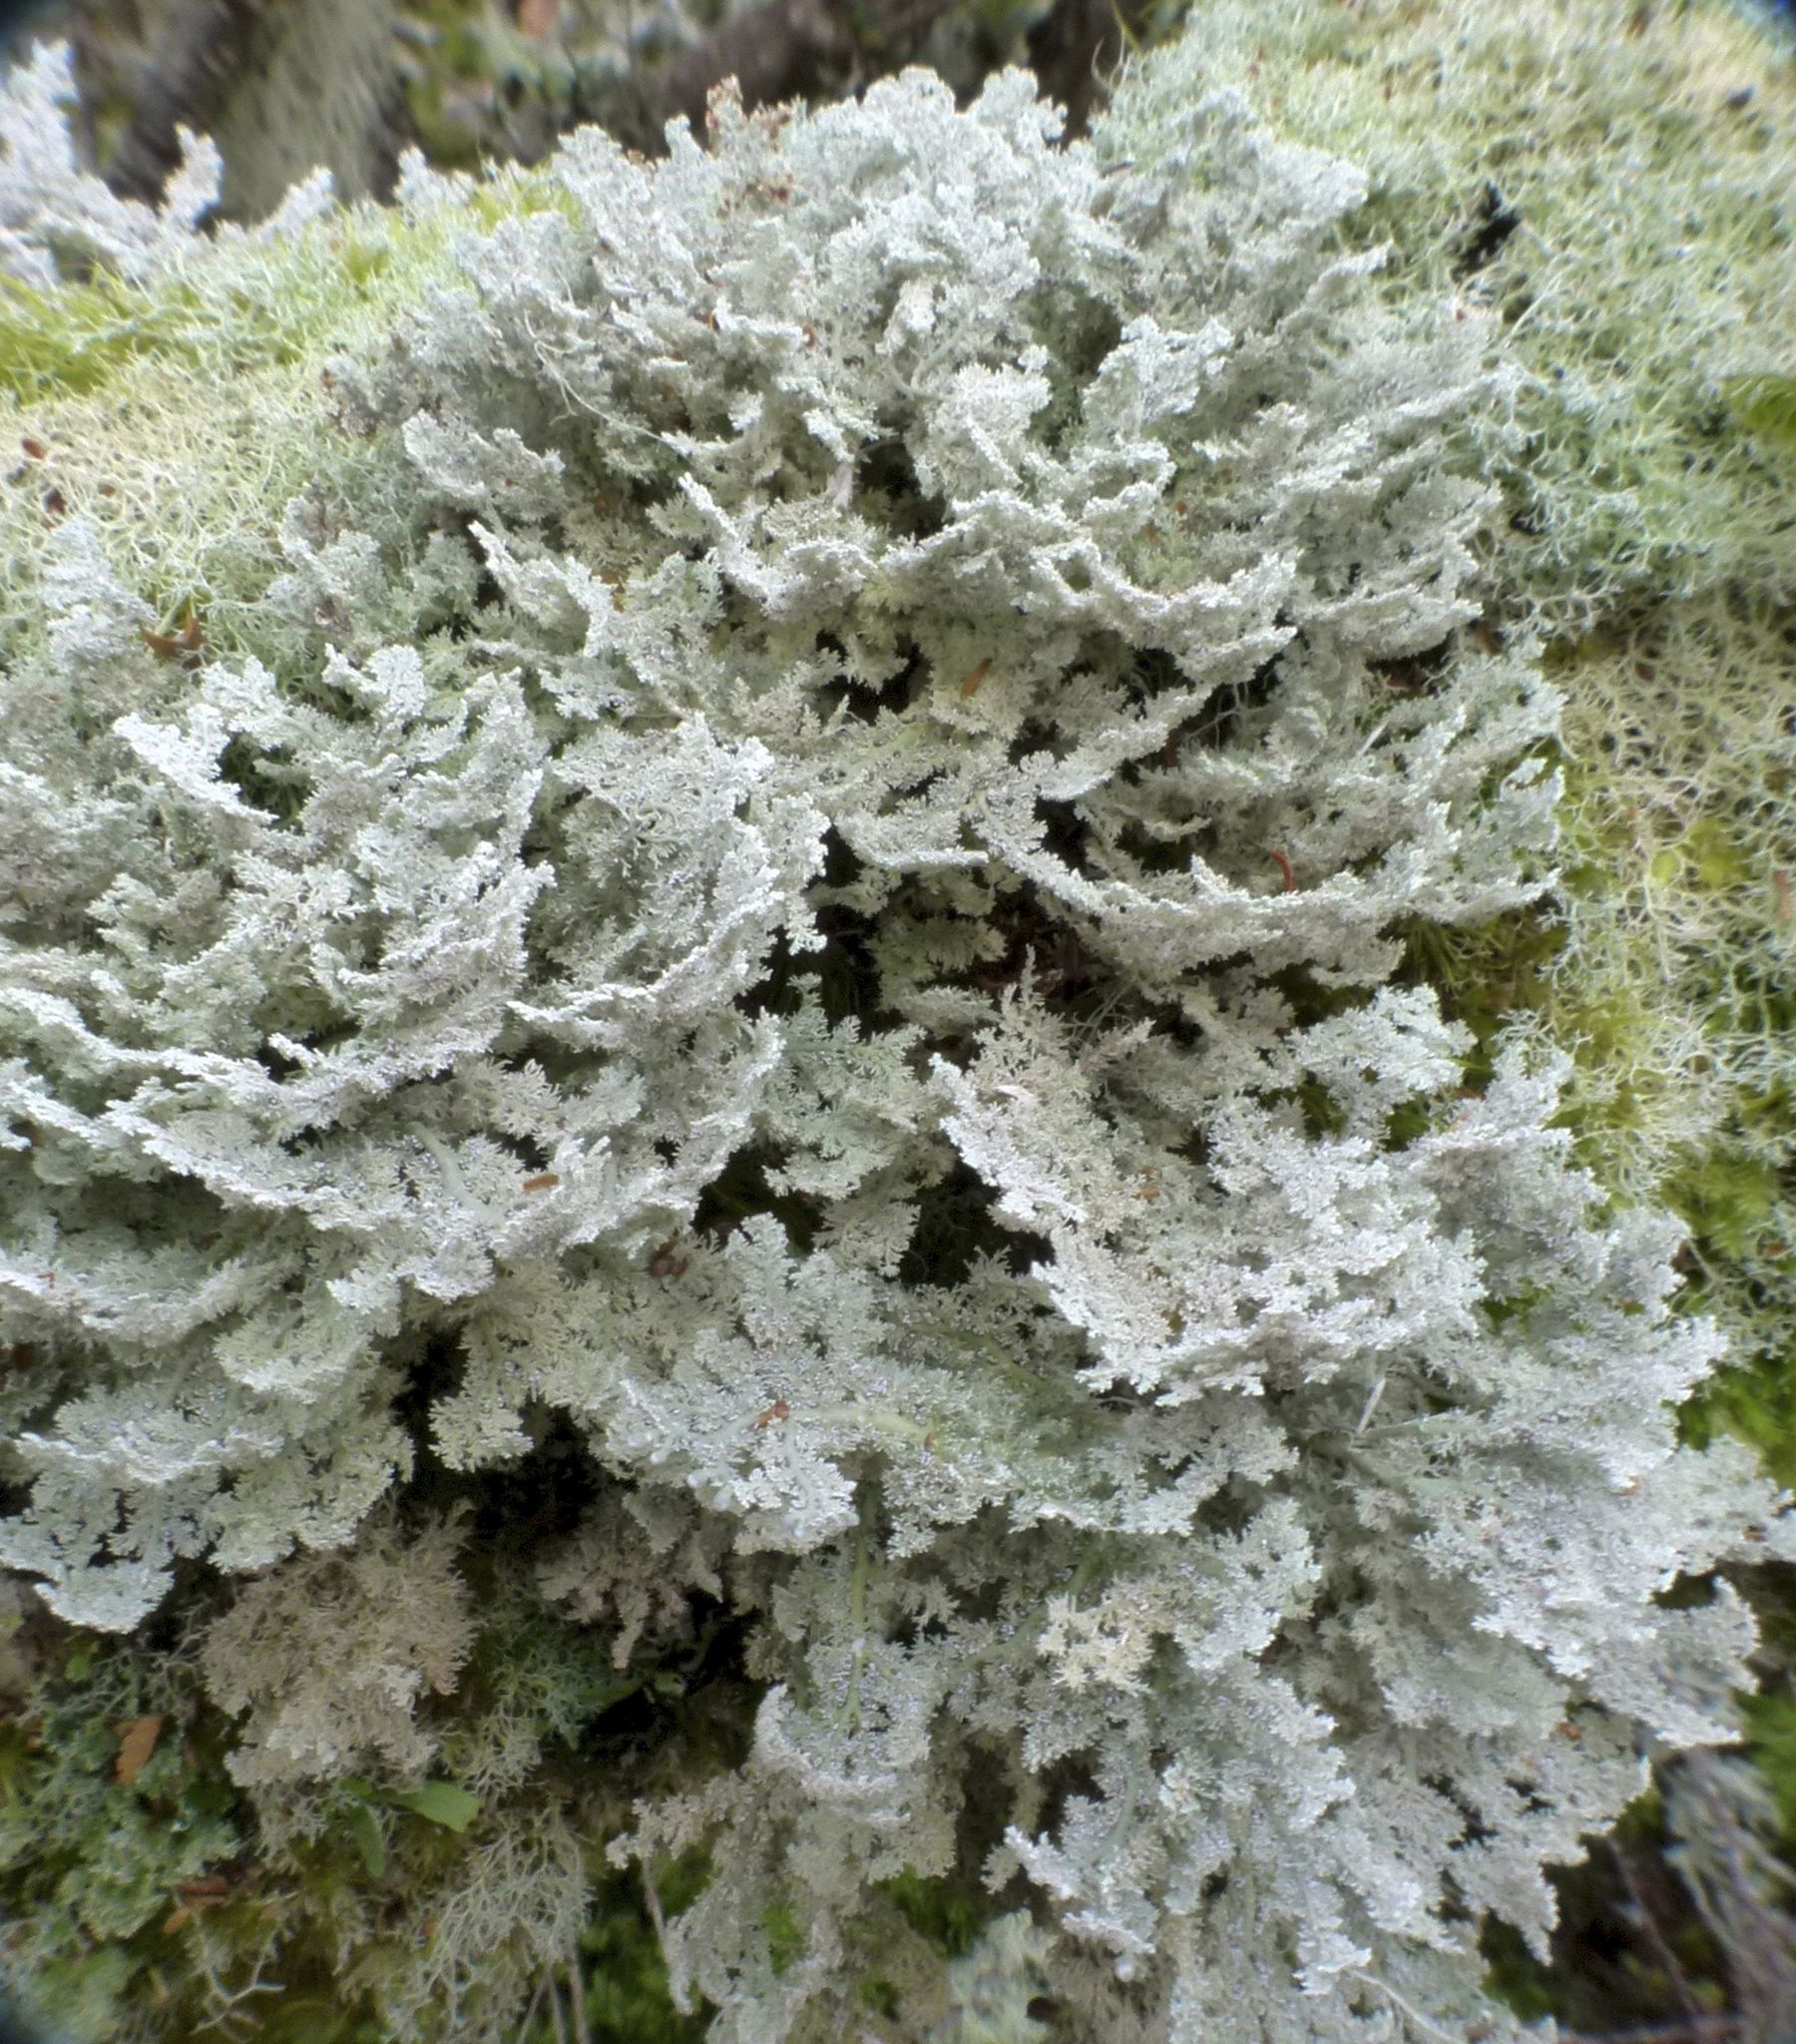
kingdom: Fungi
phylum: Ascomycota
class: Lecanoromycetes
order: Lecanorales
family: Sphaerophoraceae
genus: Sphaerophorus
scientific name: Sphaerophorus stereocauloides
